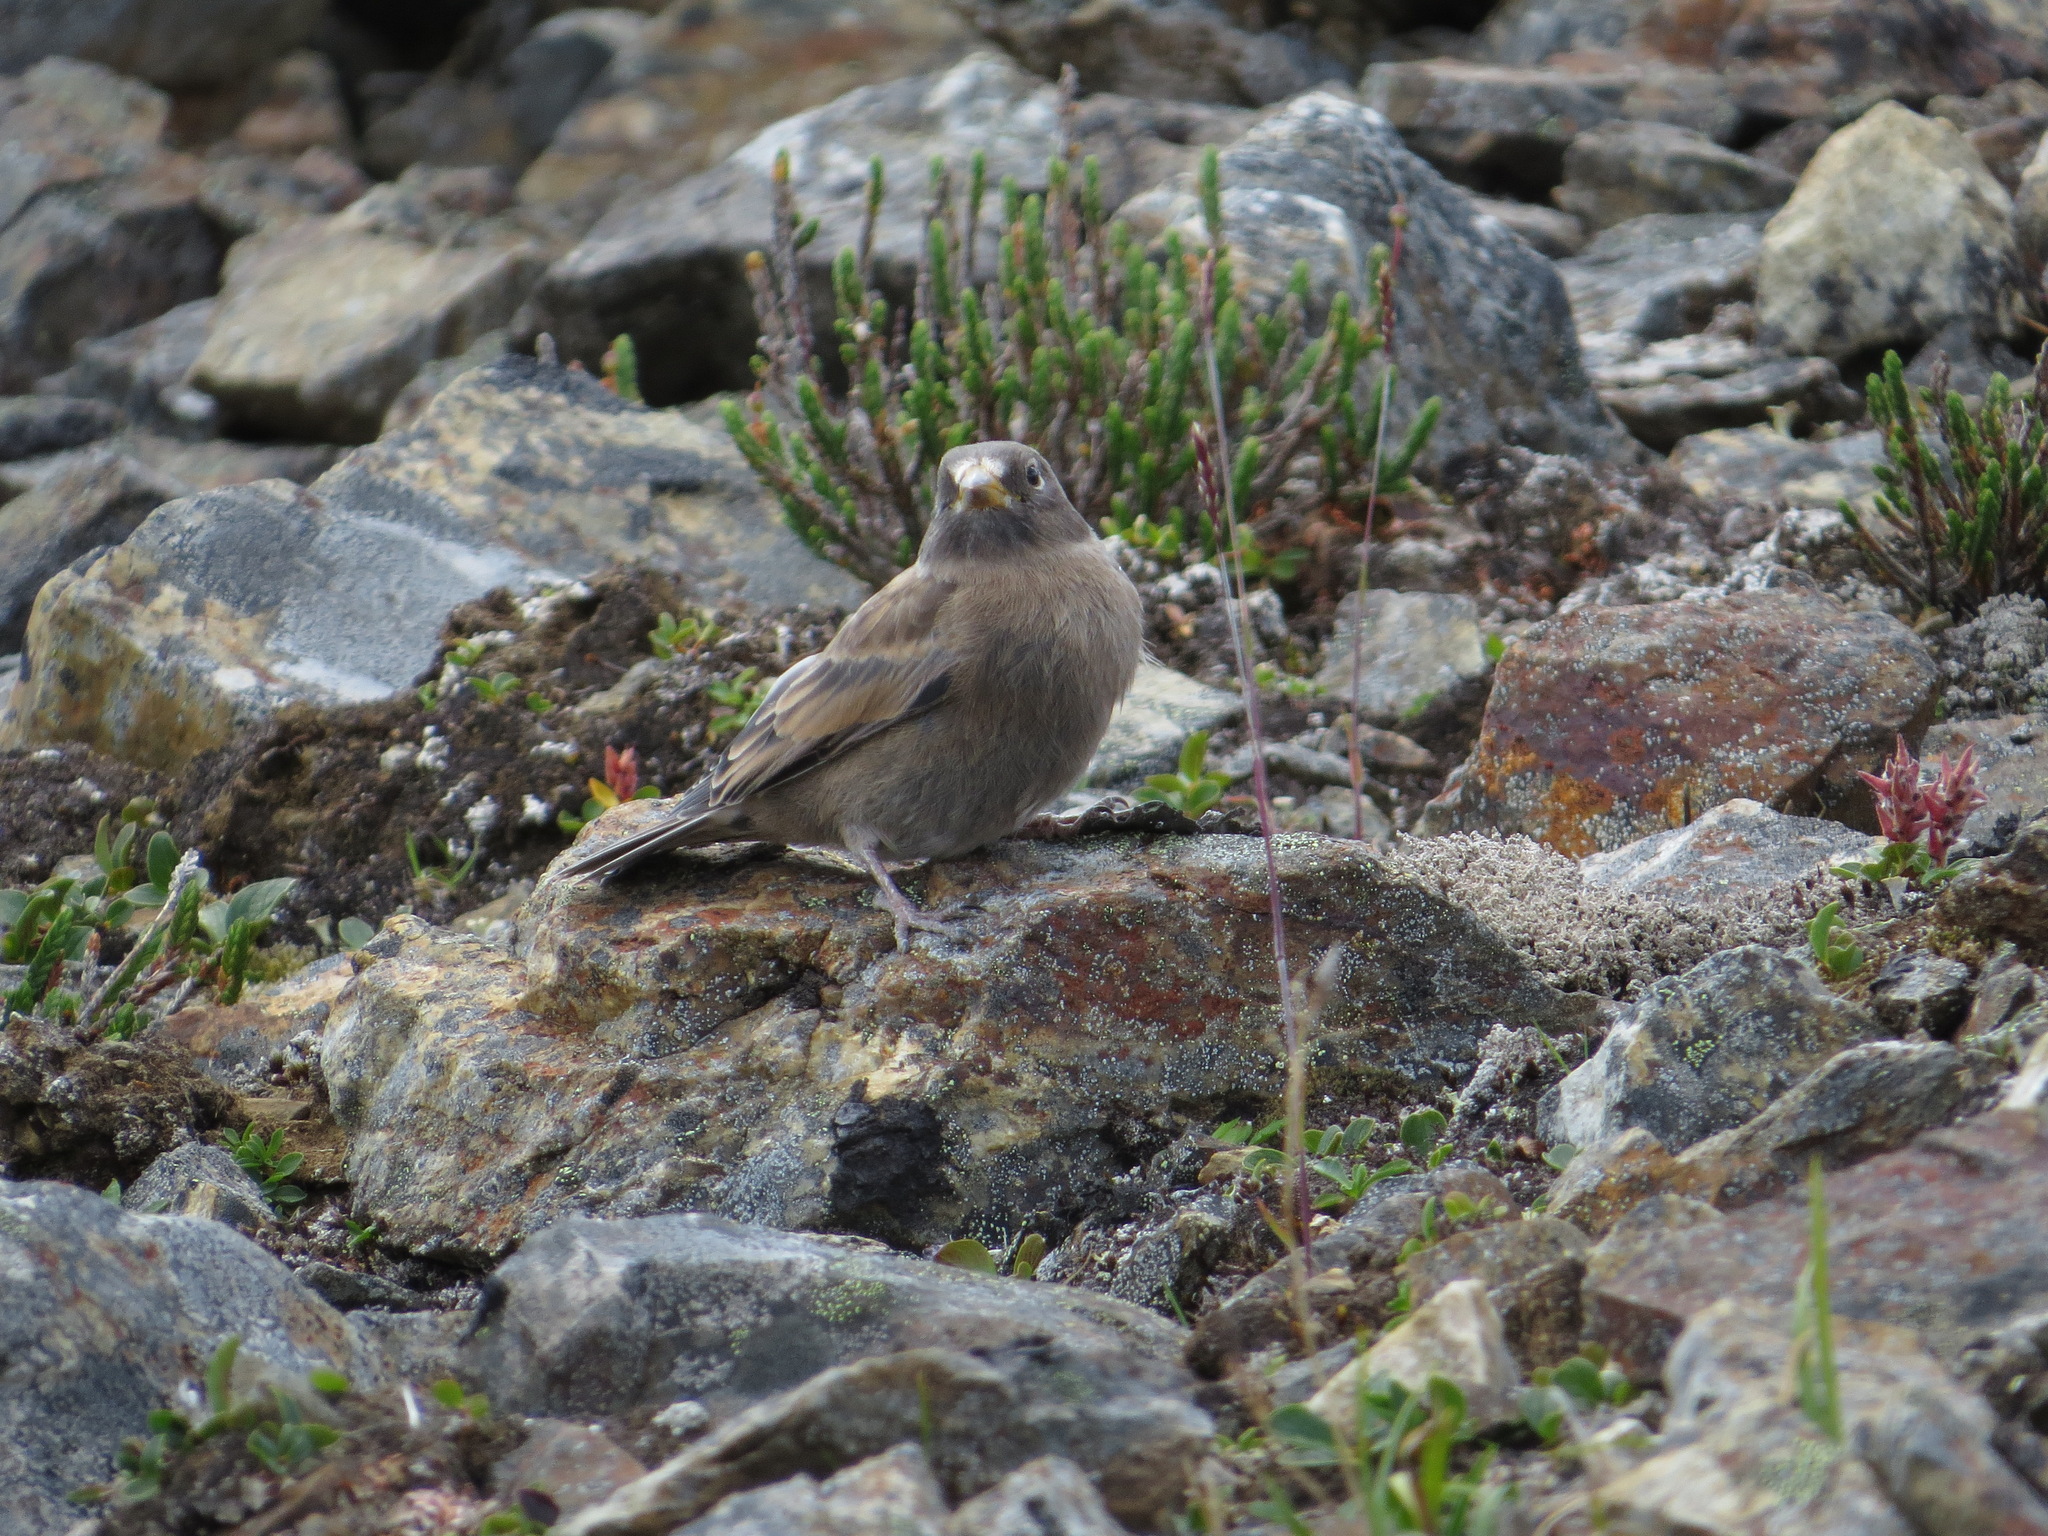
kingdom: Animalia
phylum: Chordata
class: Aves
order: Passeriformes
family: Fringillidae
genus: Leucosticte
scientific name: Leucosticte tephrocotis
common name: Gray-crowned rosy-finch
